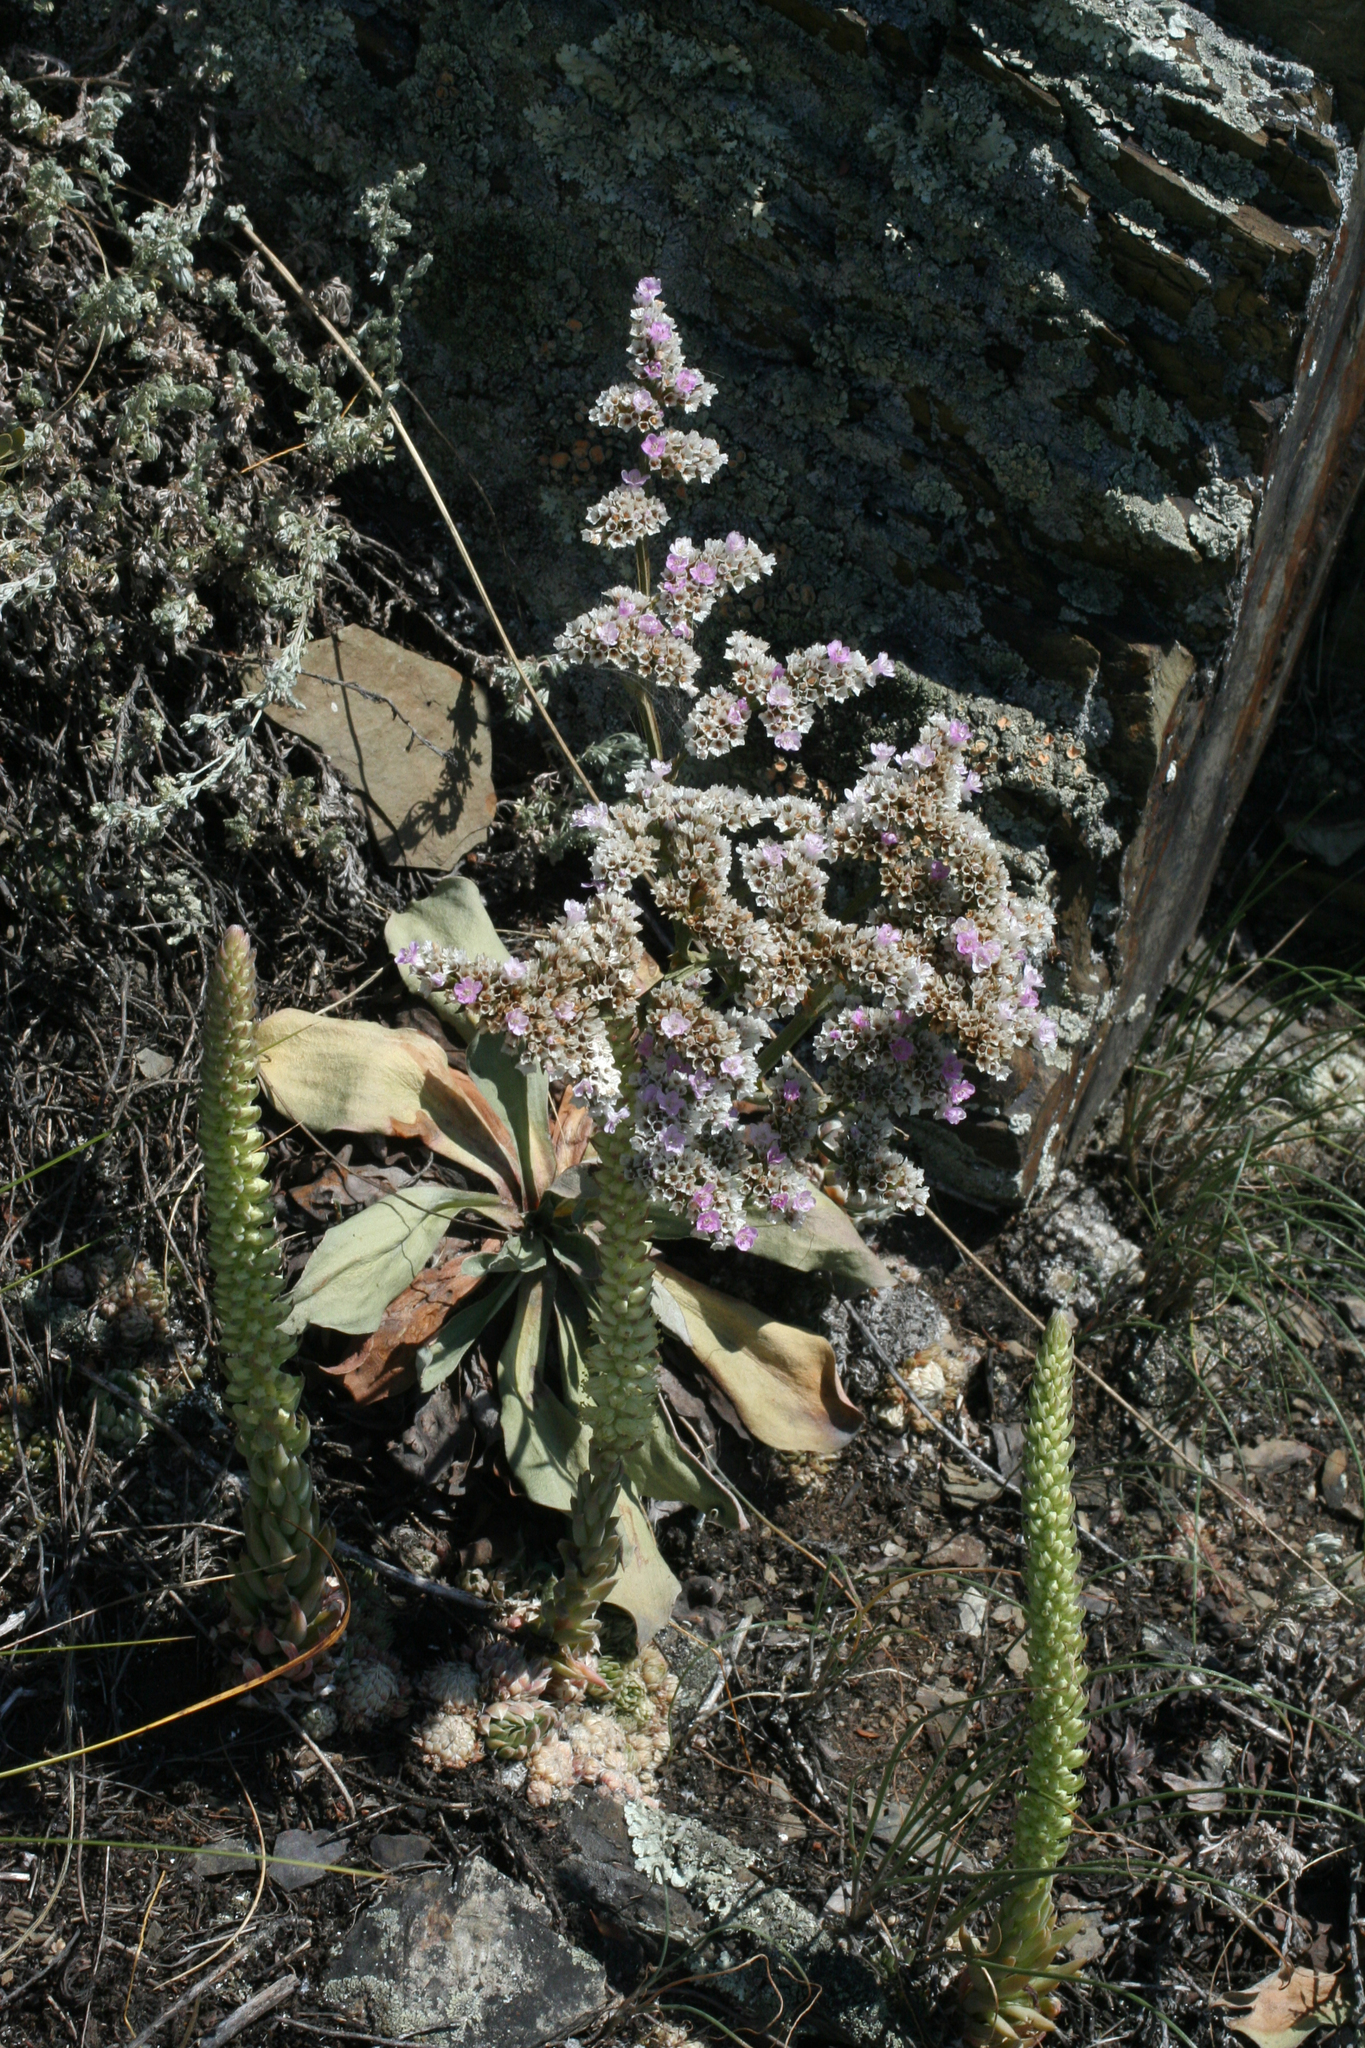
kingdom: Plantae
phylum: Tracheophyta
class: Magnoliopsida
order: Caryophyllales
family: Plumbaginaceae
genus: Goniolimon
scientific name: Goniolimon speciosum
